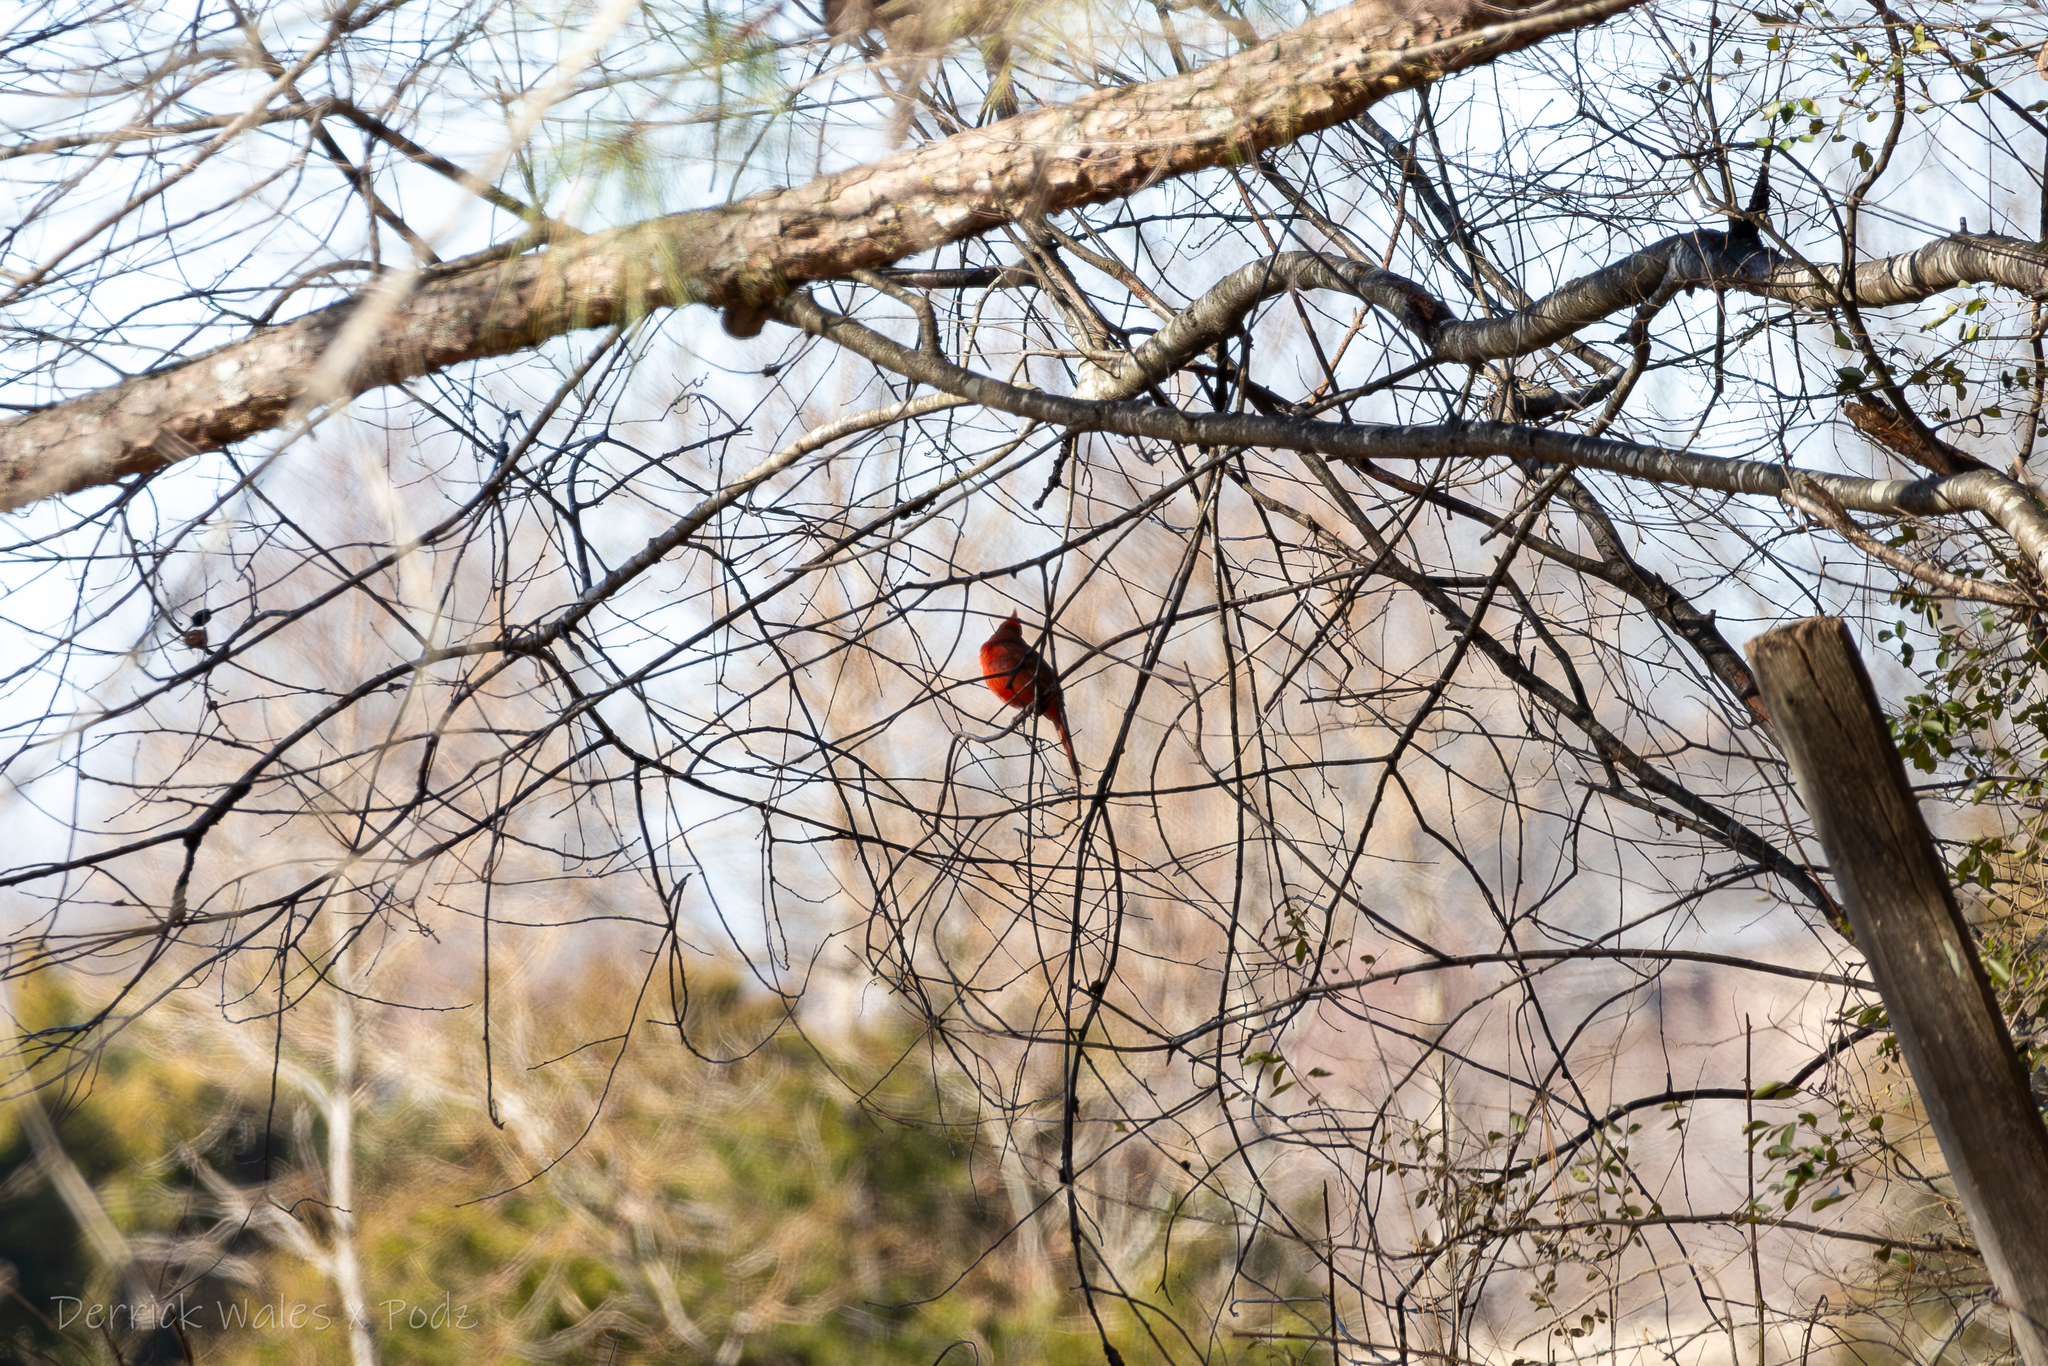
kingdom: Animalia
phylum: Chordata
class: Aves
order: Passeriformes
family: Cardinalidae
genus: Cardinalis
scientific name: Cardinalis cardinalis
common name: Northern cardinal
